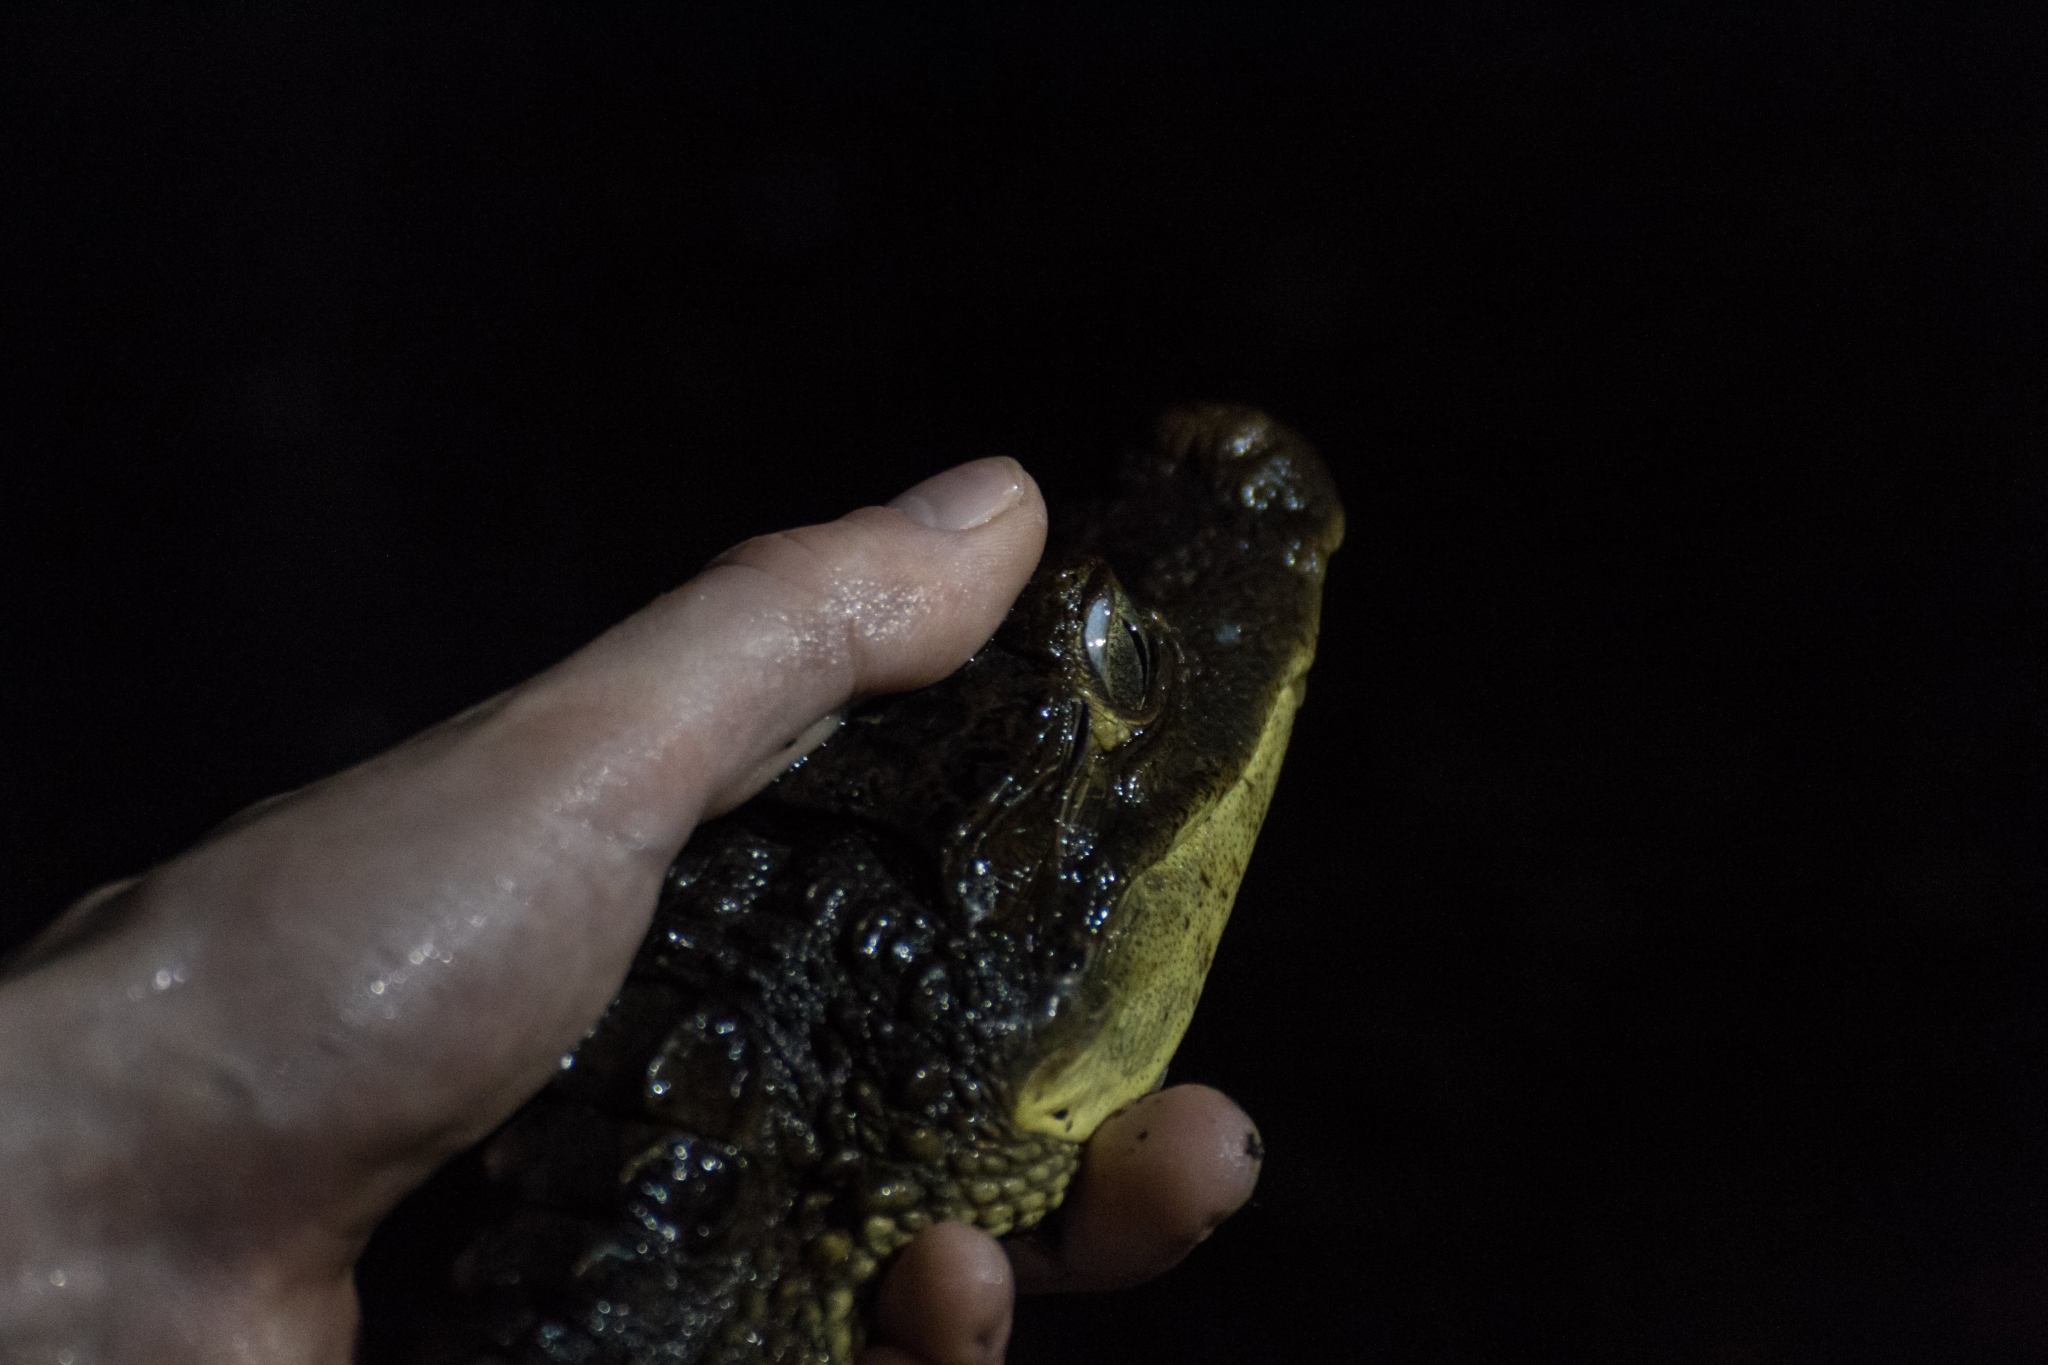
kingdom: Animalia
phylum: Chordata
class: Crocodylia
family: Alligatoridae
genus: Caiman
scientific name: Caiman crocodilus
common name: Common caiman
